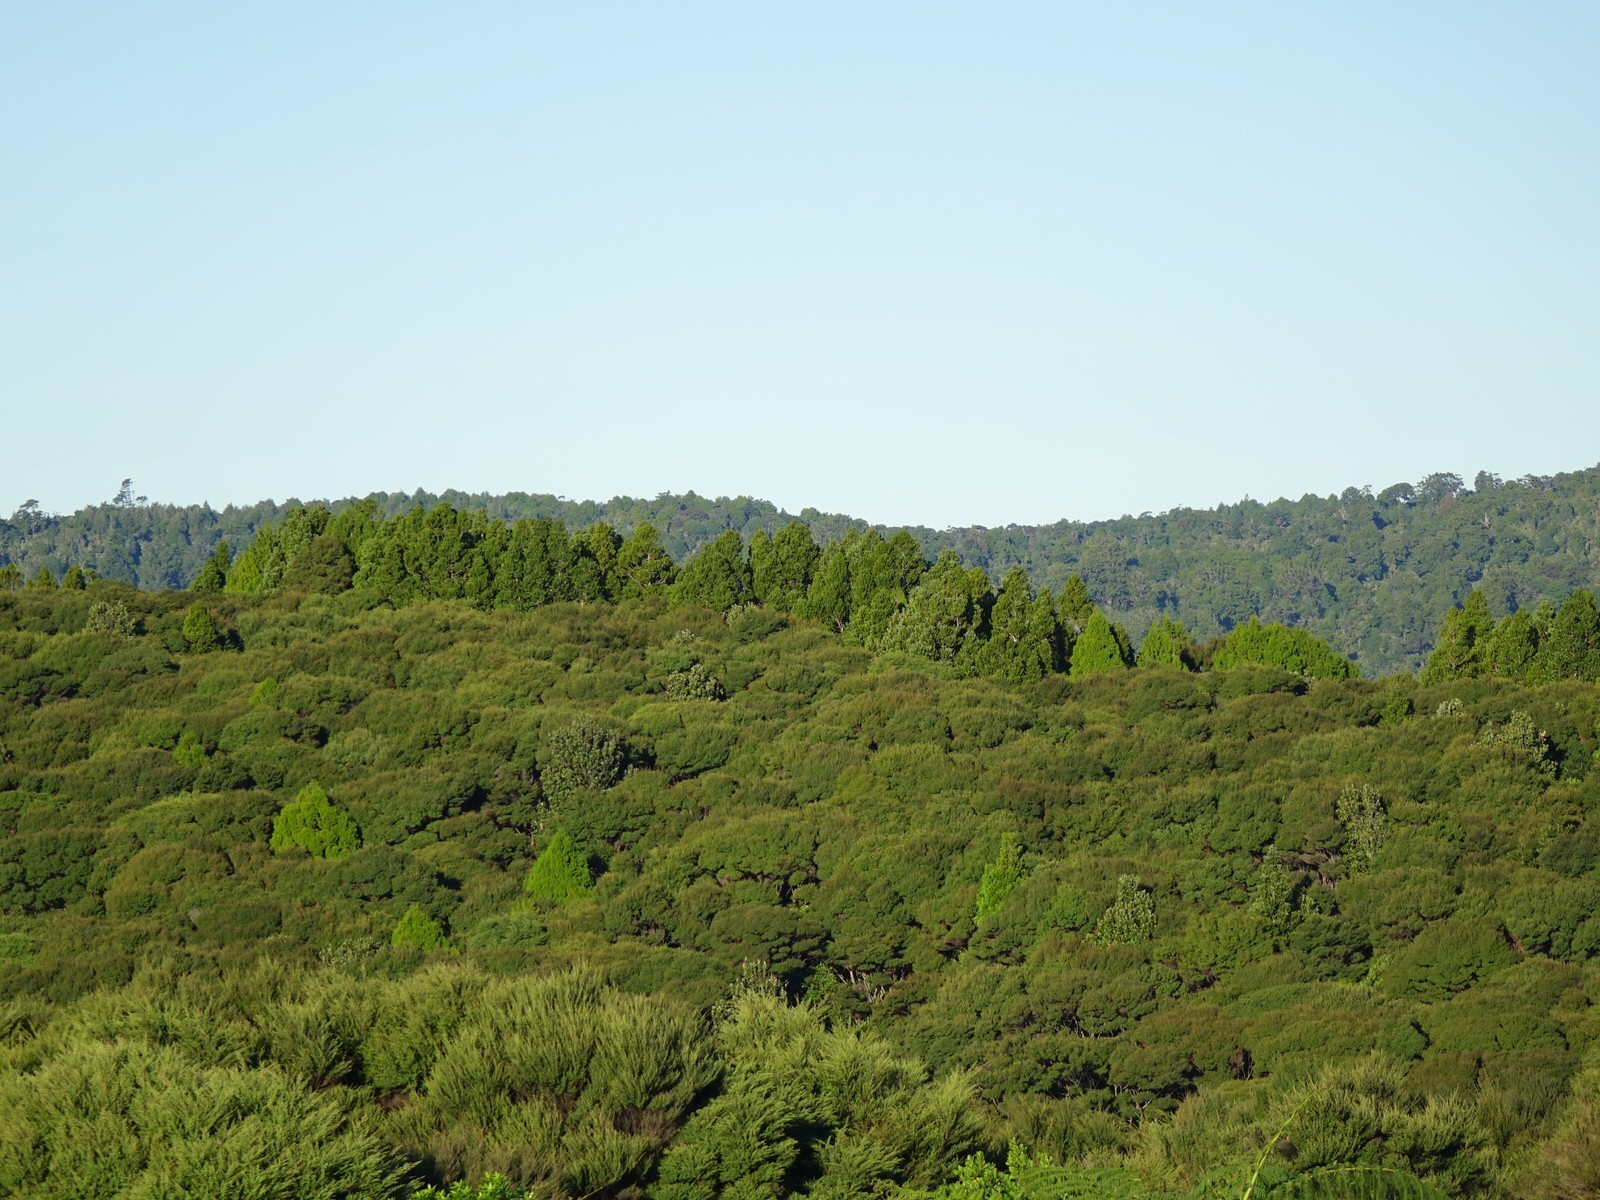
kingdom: Plantae
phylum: Tracheophyta
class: Pinopsida
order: Pinales
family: Araucariaceae
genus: Agathis
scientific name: Agathis australis
